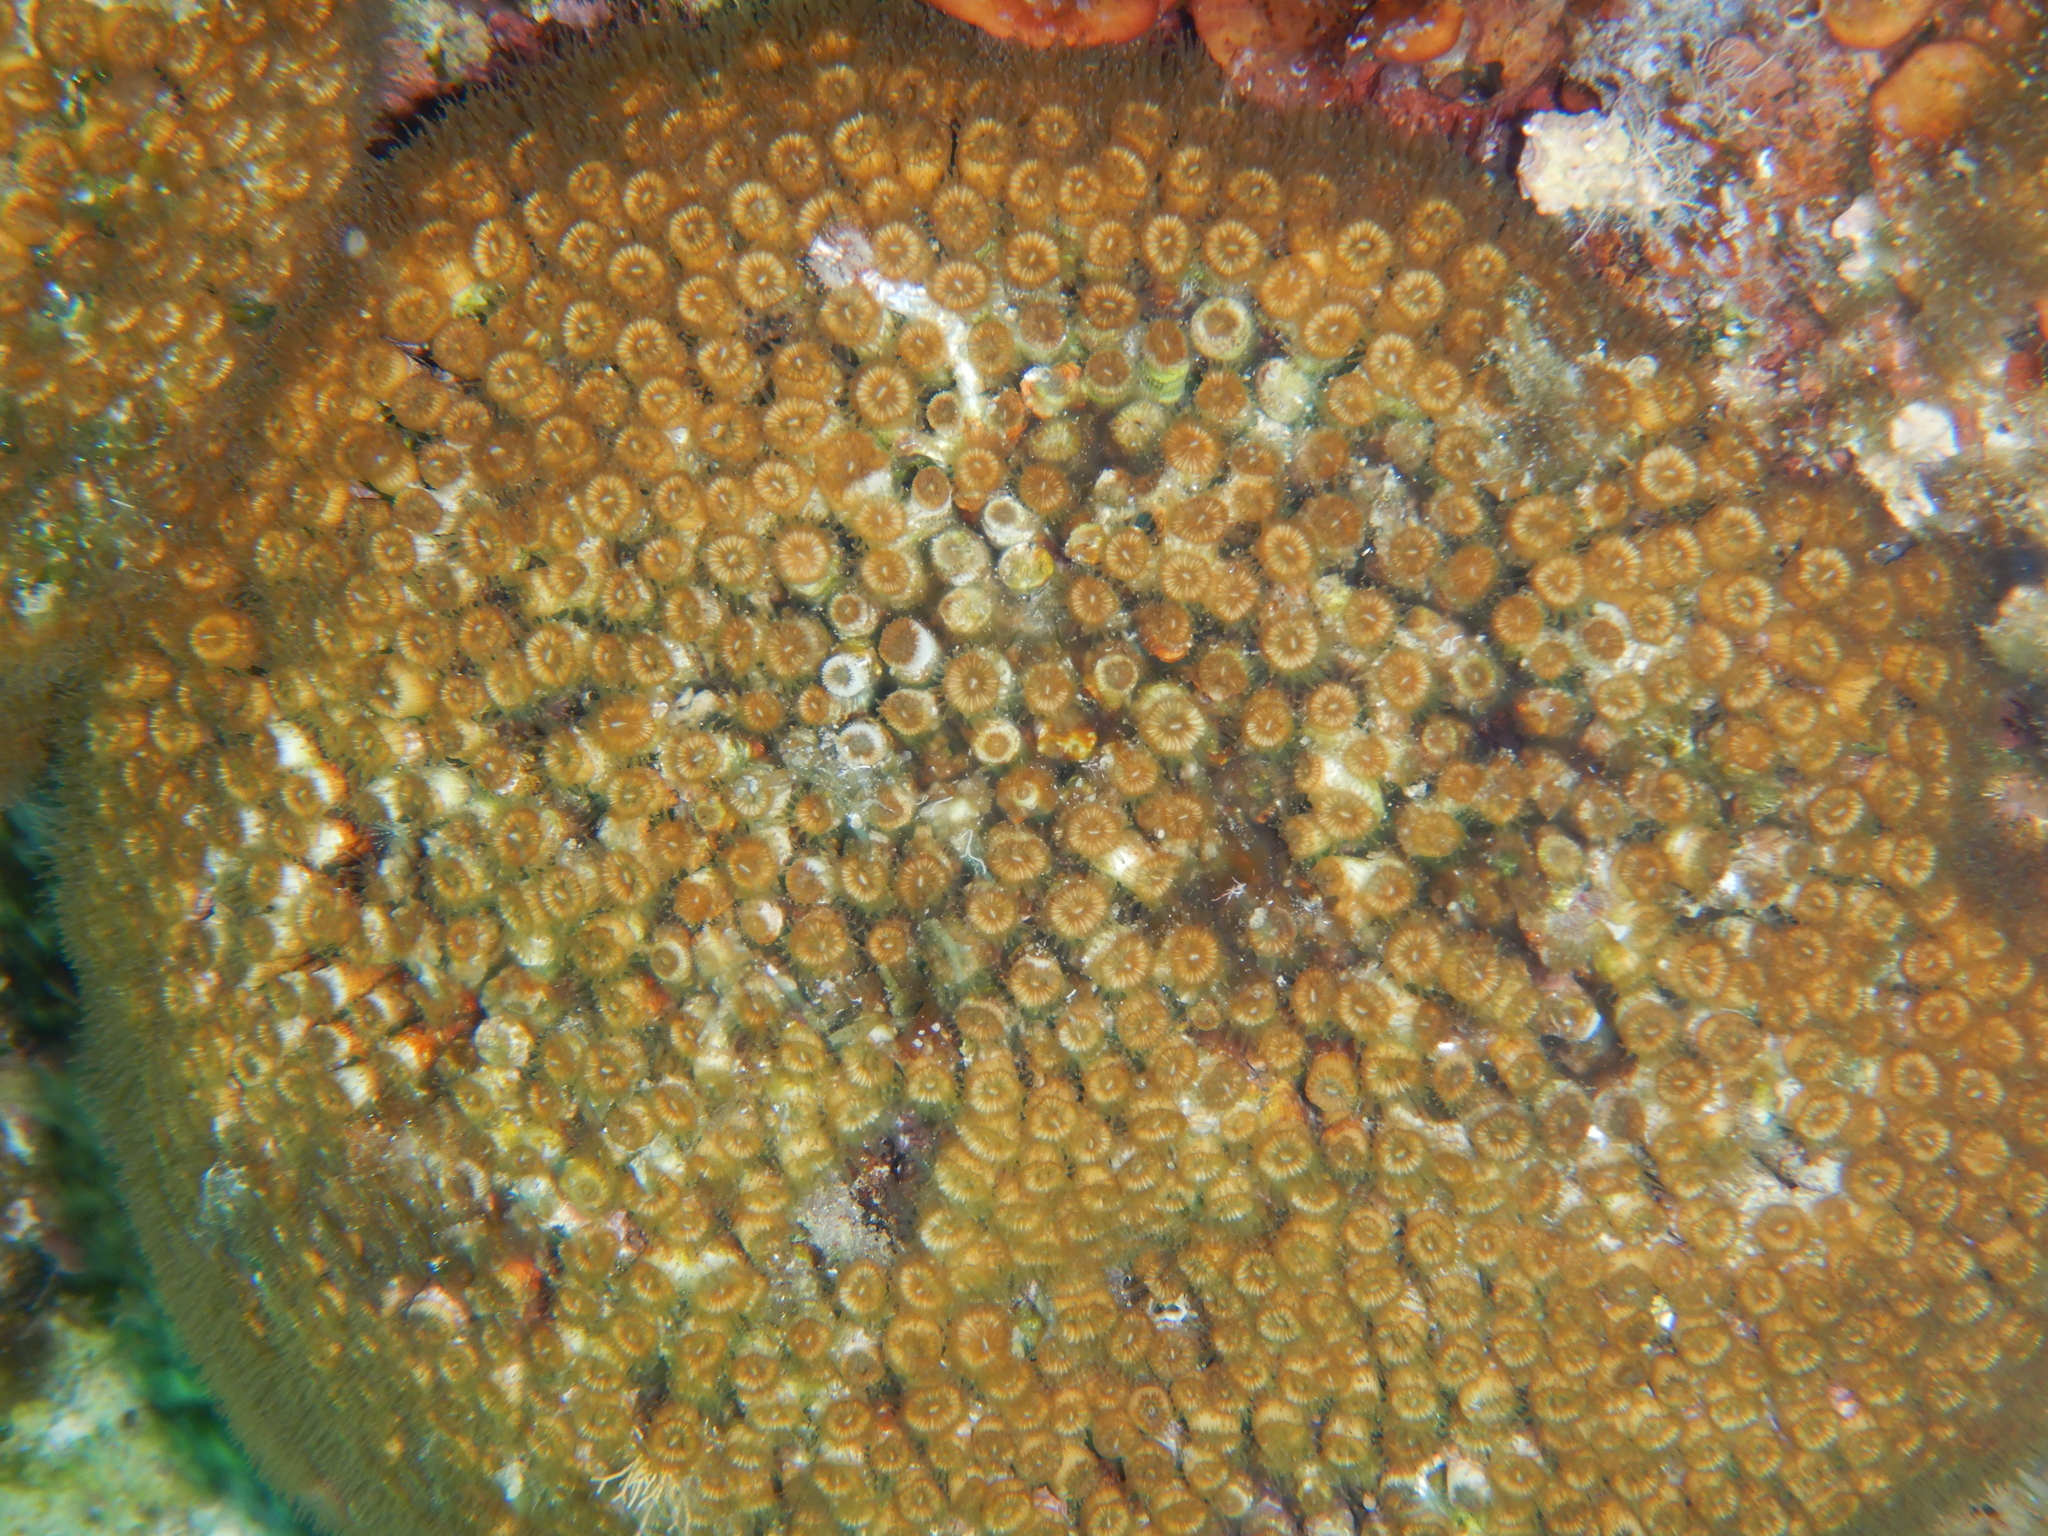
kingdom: Animalia
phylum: Cnidaria
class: Anthozoa
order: Scleractinia
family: Cladocoridae
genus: Cladocora
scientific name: Cladocora caespitosa
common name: Cladocora
